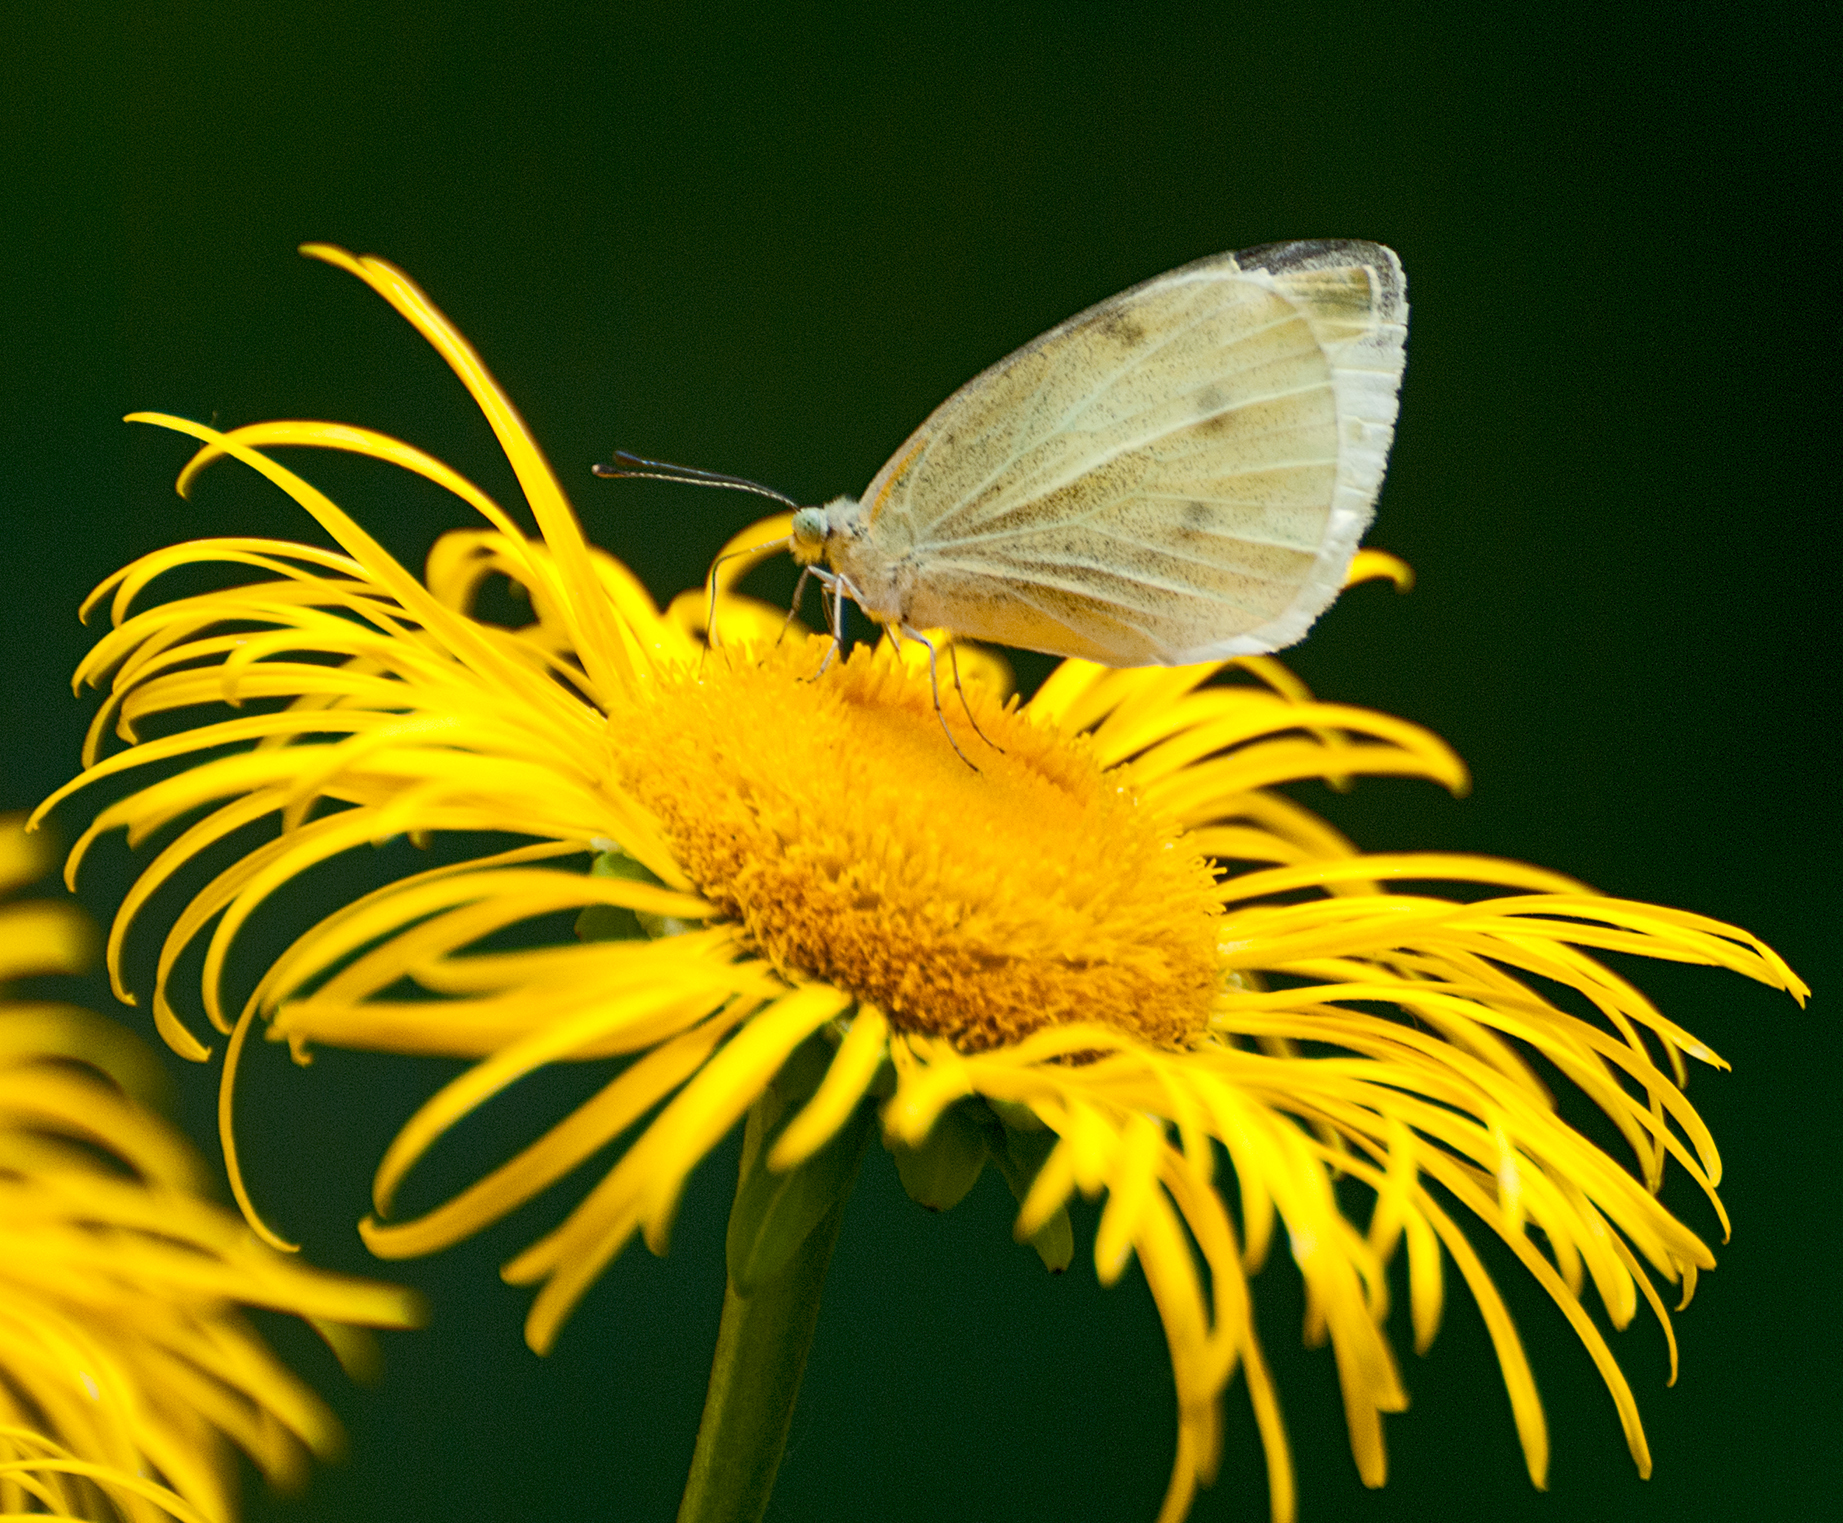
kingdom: Animalia
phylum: Arthropoda
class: Insecta
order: Lepidoptera
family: Pieridae
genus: Pieris
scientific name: Pieris rapae
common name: Small white
